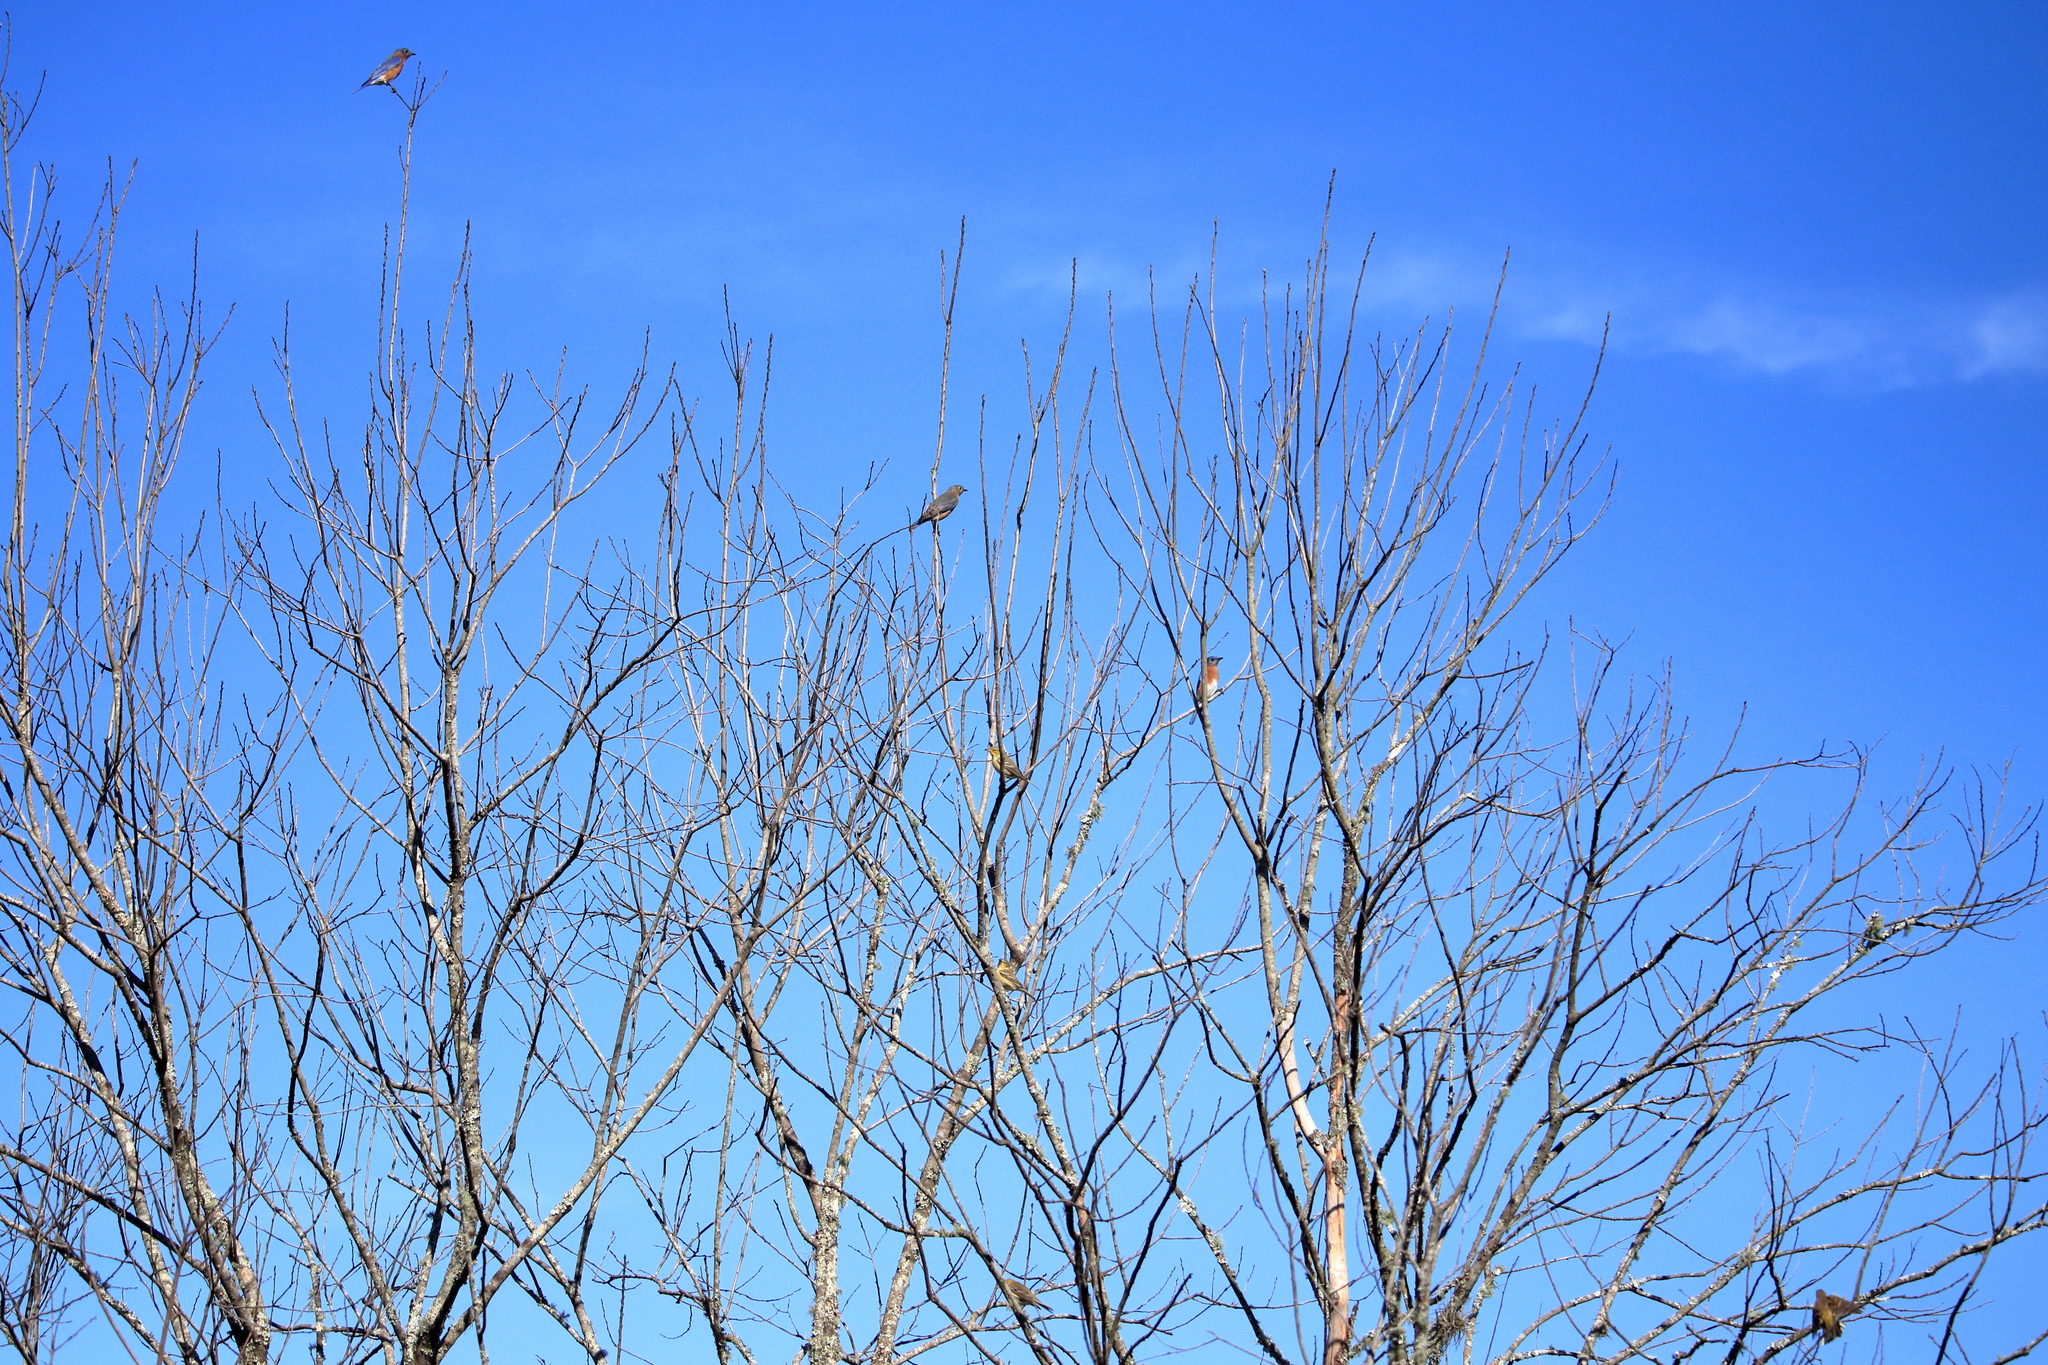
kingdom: Animalia
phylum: Chordata
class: Aves
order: Passeriformes
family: Parulidae
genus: Setophaga
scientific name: Setophaga pinus
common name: Pine warbler
